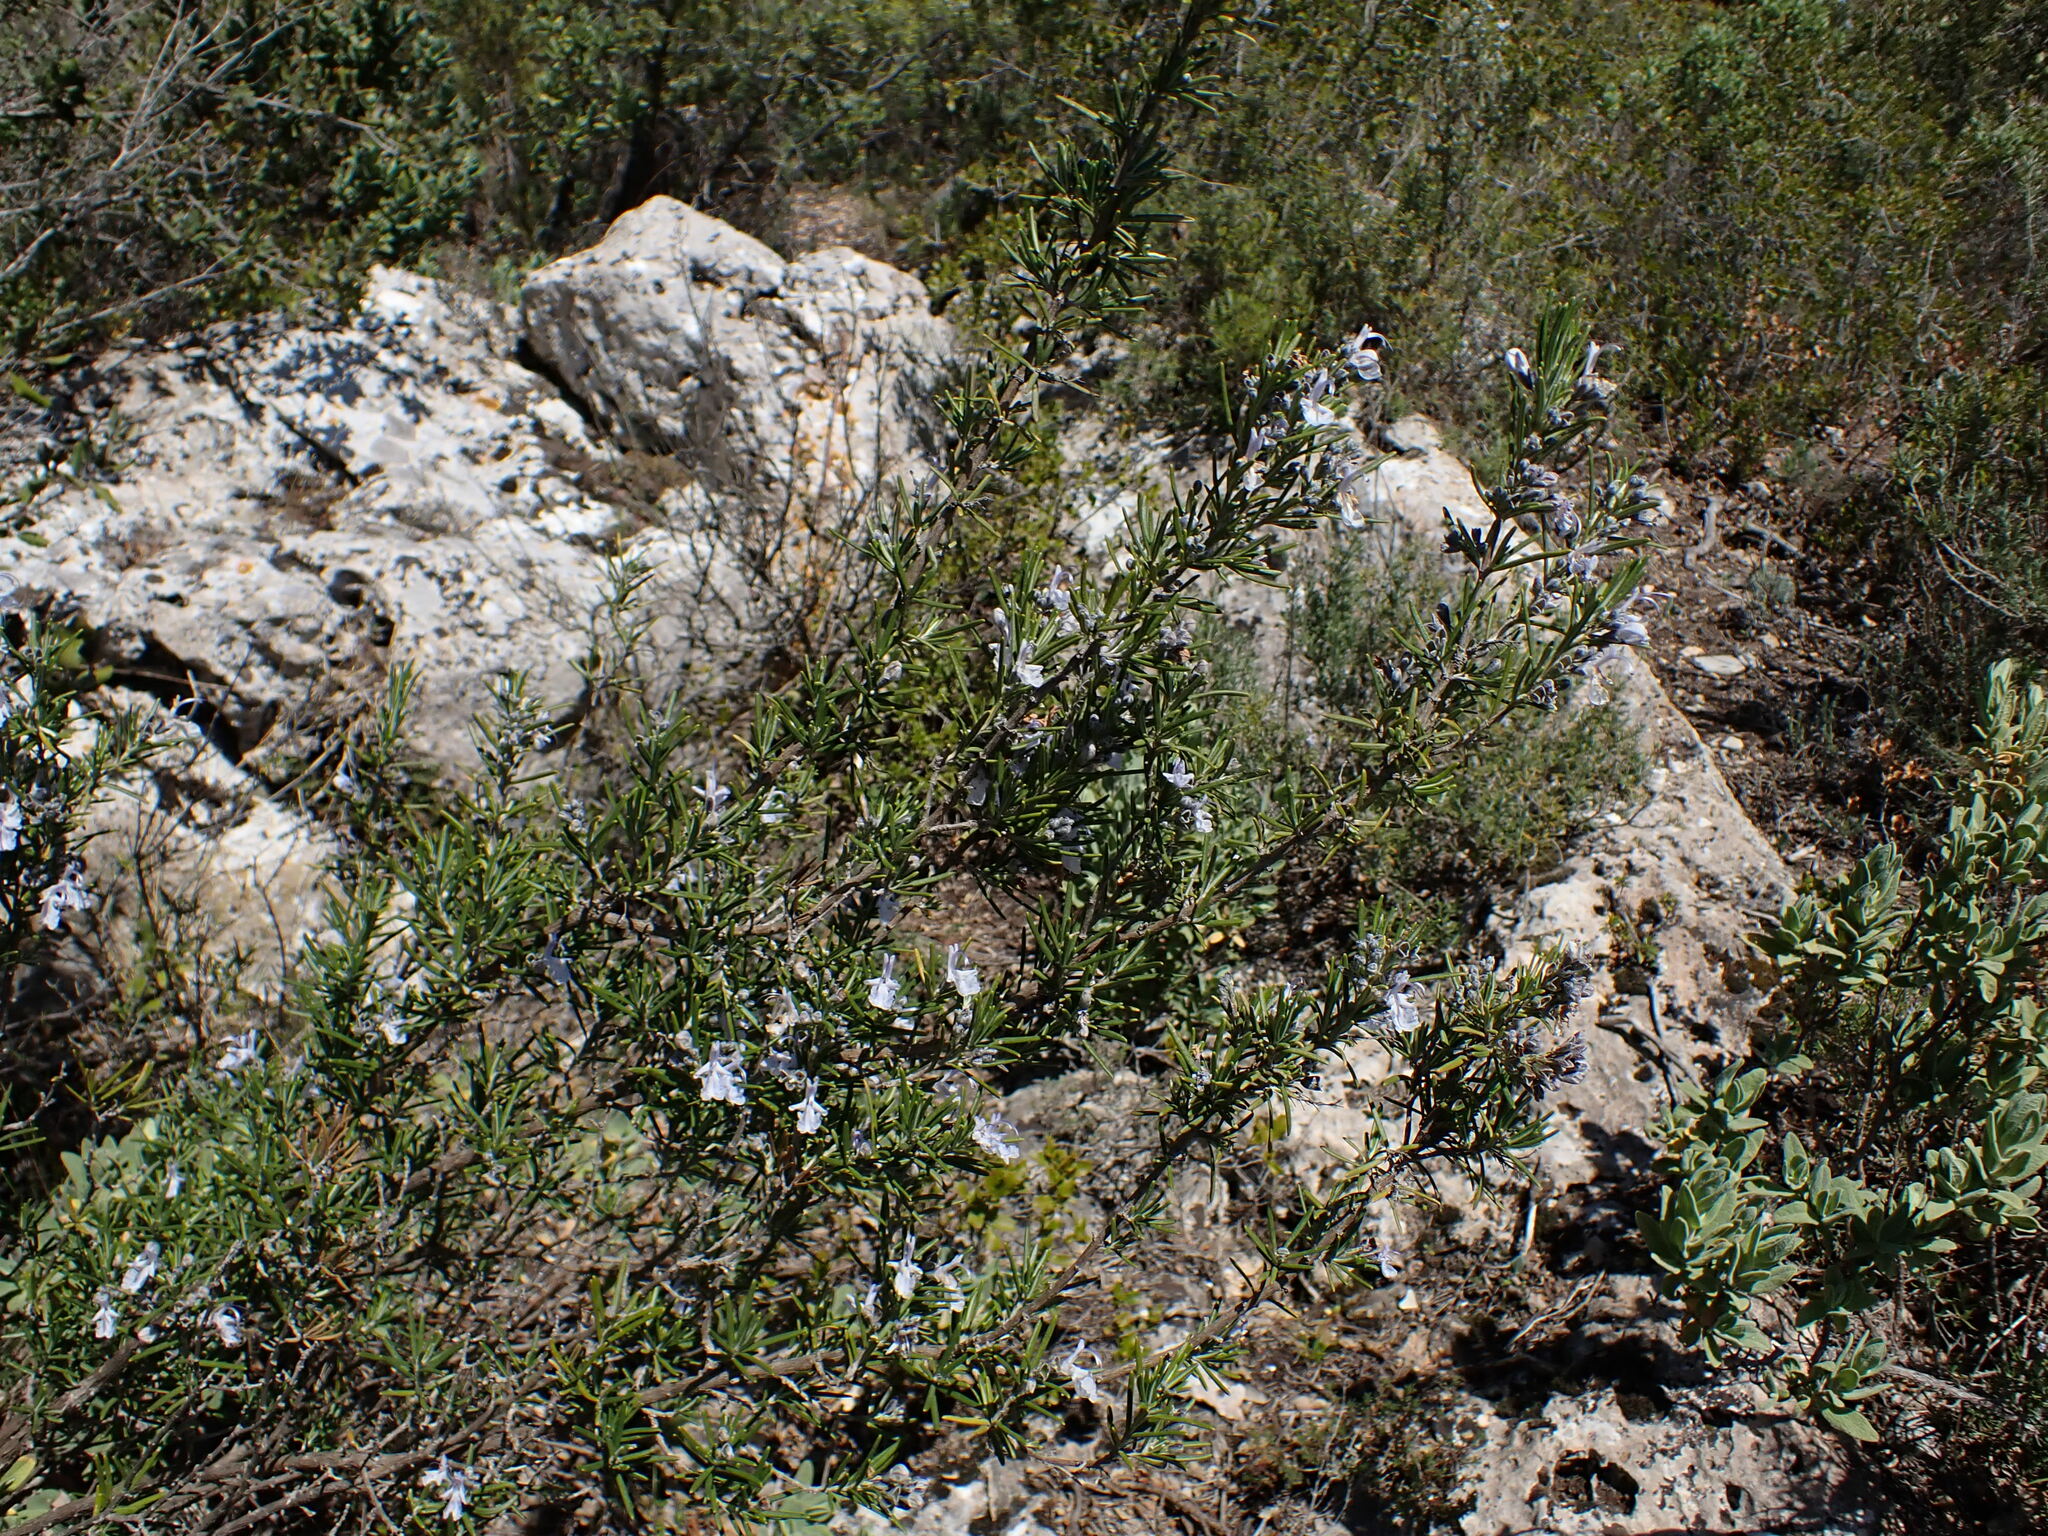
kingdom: Plantae
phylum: Tracheophyta
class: Magnoliopsida
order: Lamiales
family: Lamiaceae
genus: Salvia
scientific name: Salvia rosmarinus
